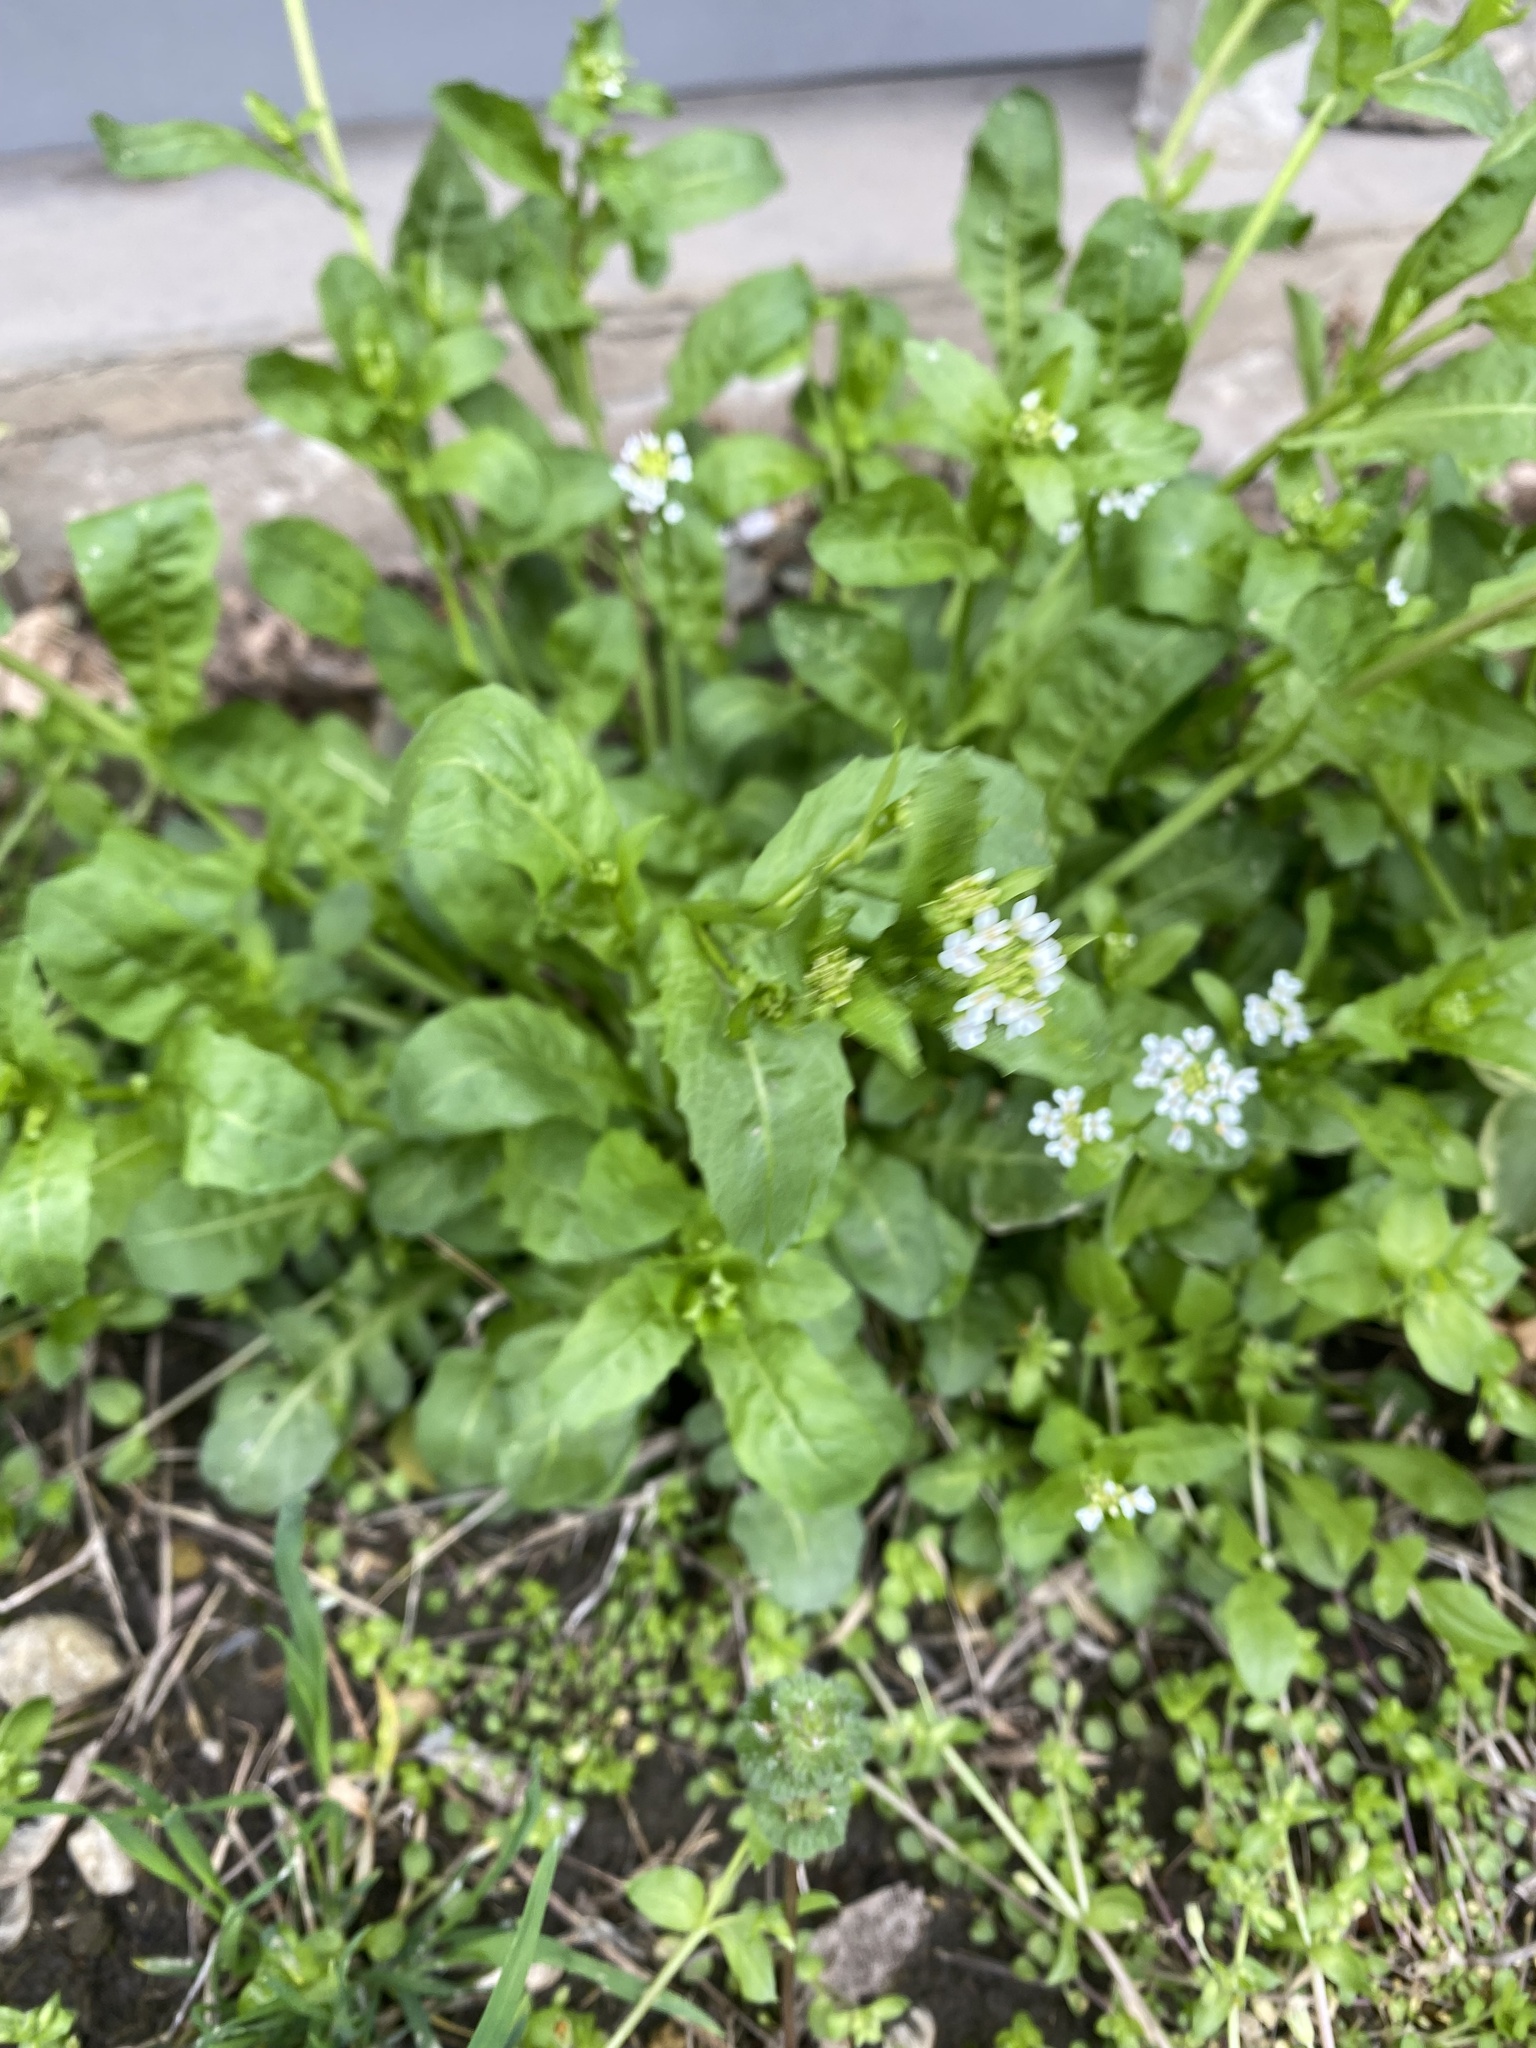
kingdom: Plantae
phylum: Tracheophyta
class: Magnoliopsida
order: Brassicales
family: Brassicaceae
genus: Calepina
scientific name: Calepina irregularis
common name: White ballmustard
